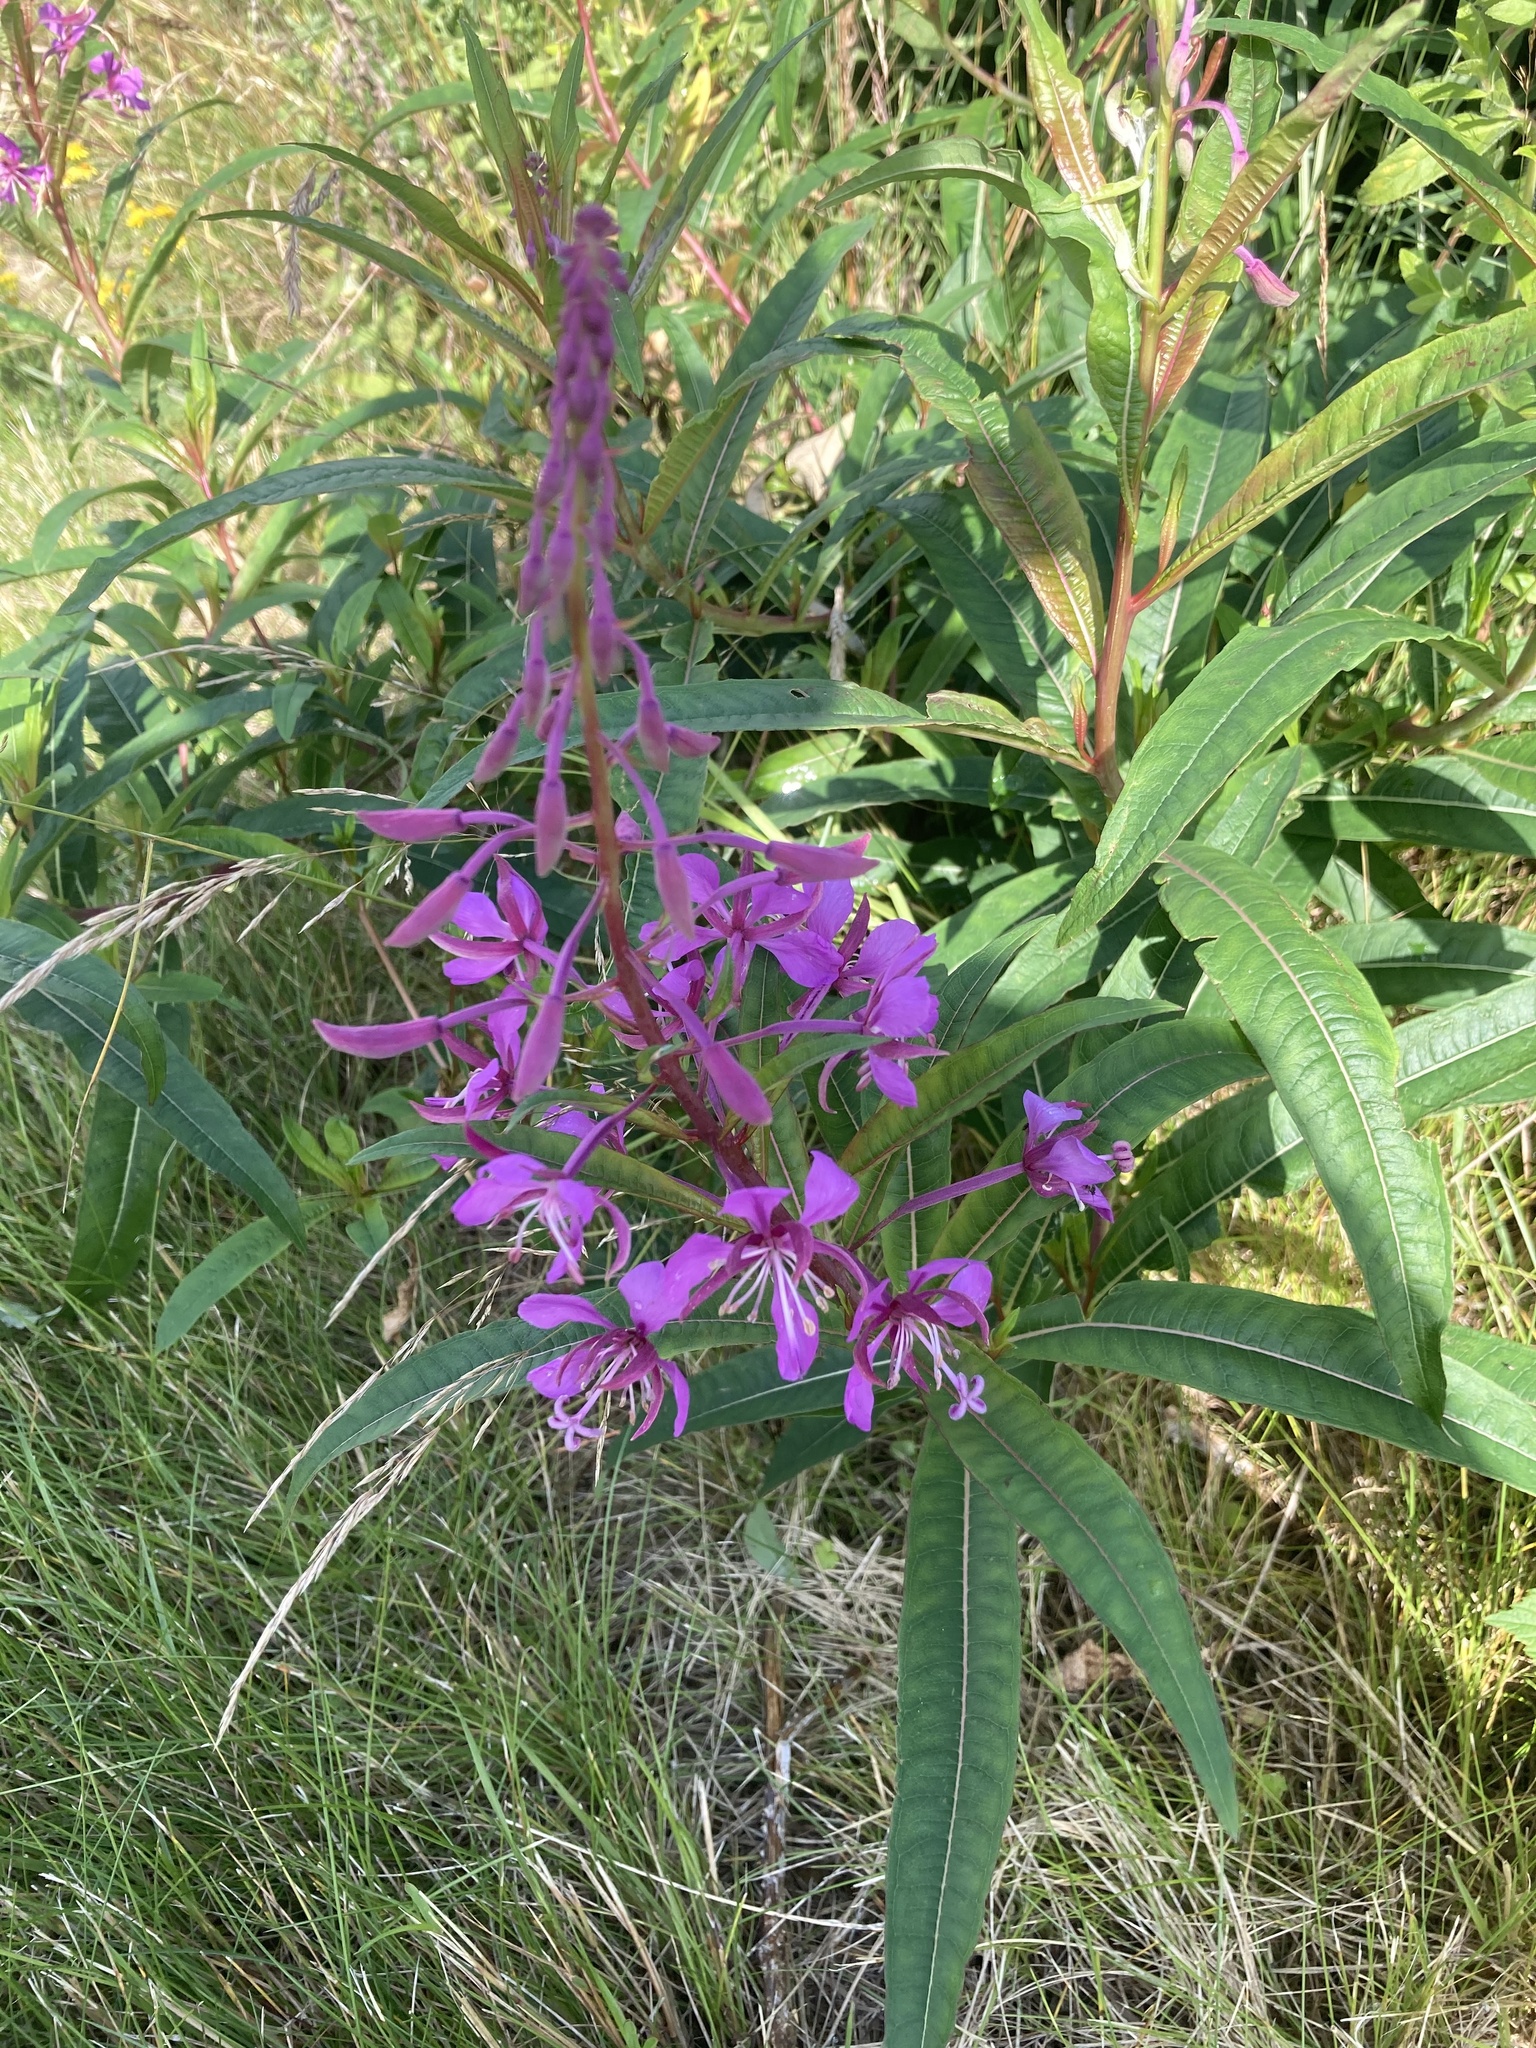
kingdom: Plantae
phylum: Tracheophyta
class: Magnoliopsida
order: Myrtales
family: Onagraceae
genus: Chamaenerion
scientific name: Chamaenerion angustifolium
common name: Fireweed
